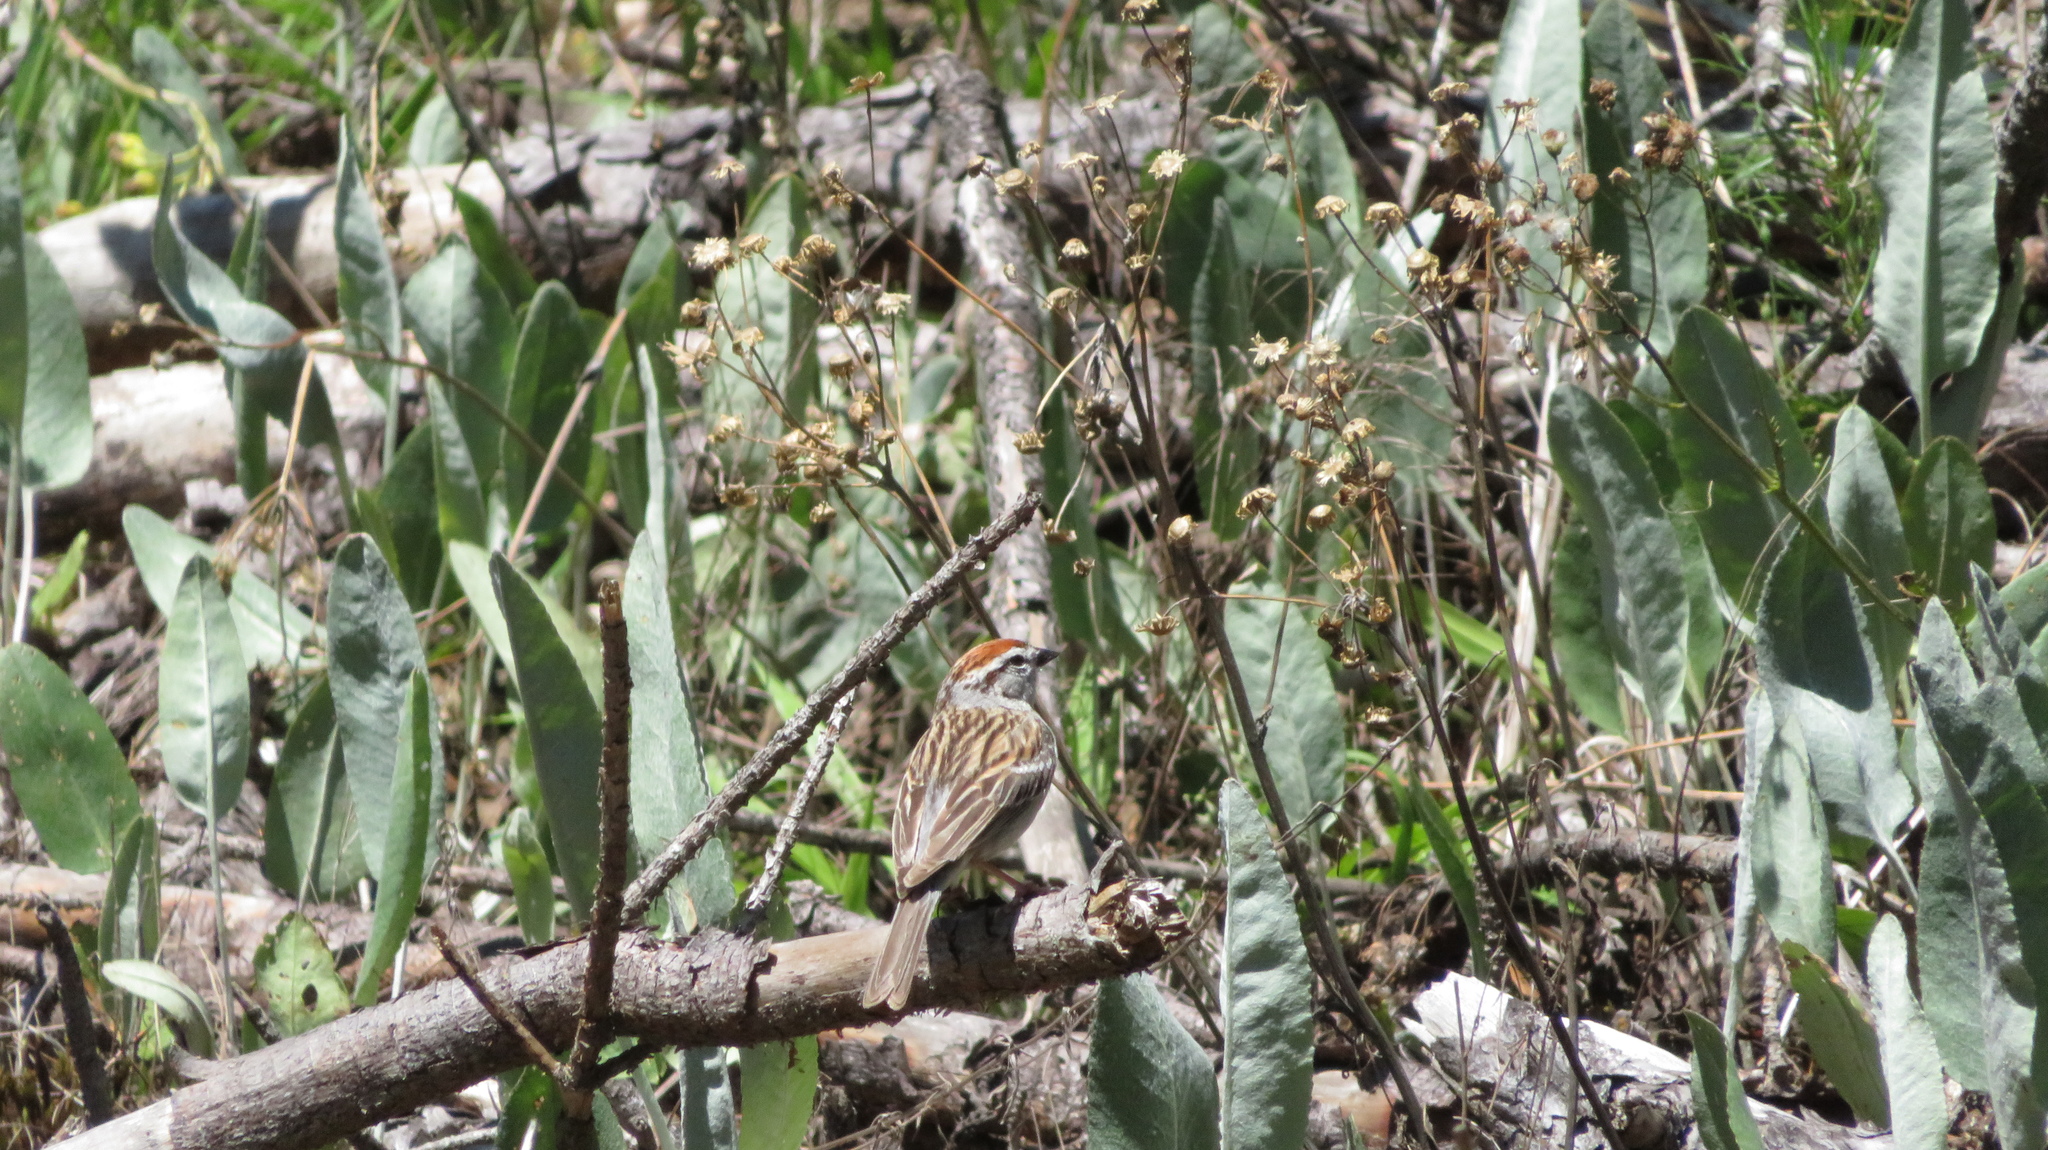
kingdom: Animalia
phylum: Chordata
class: Aves
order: Passeriformes
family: Passerellidae
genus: Spizella
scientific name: Spizella passerina
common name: Chipping sparrow
